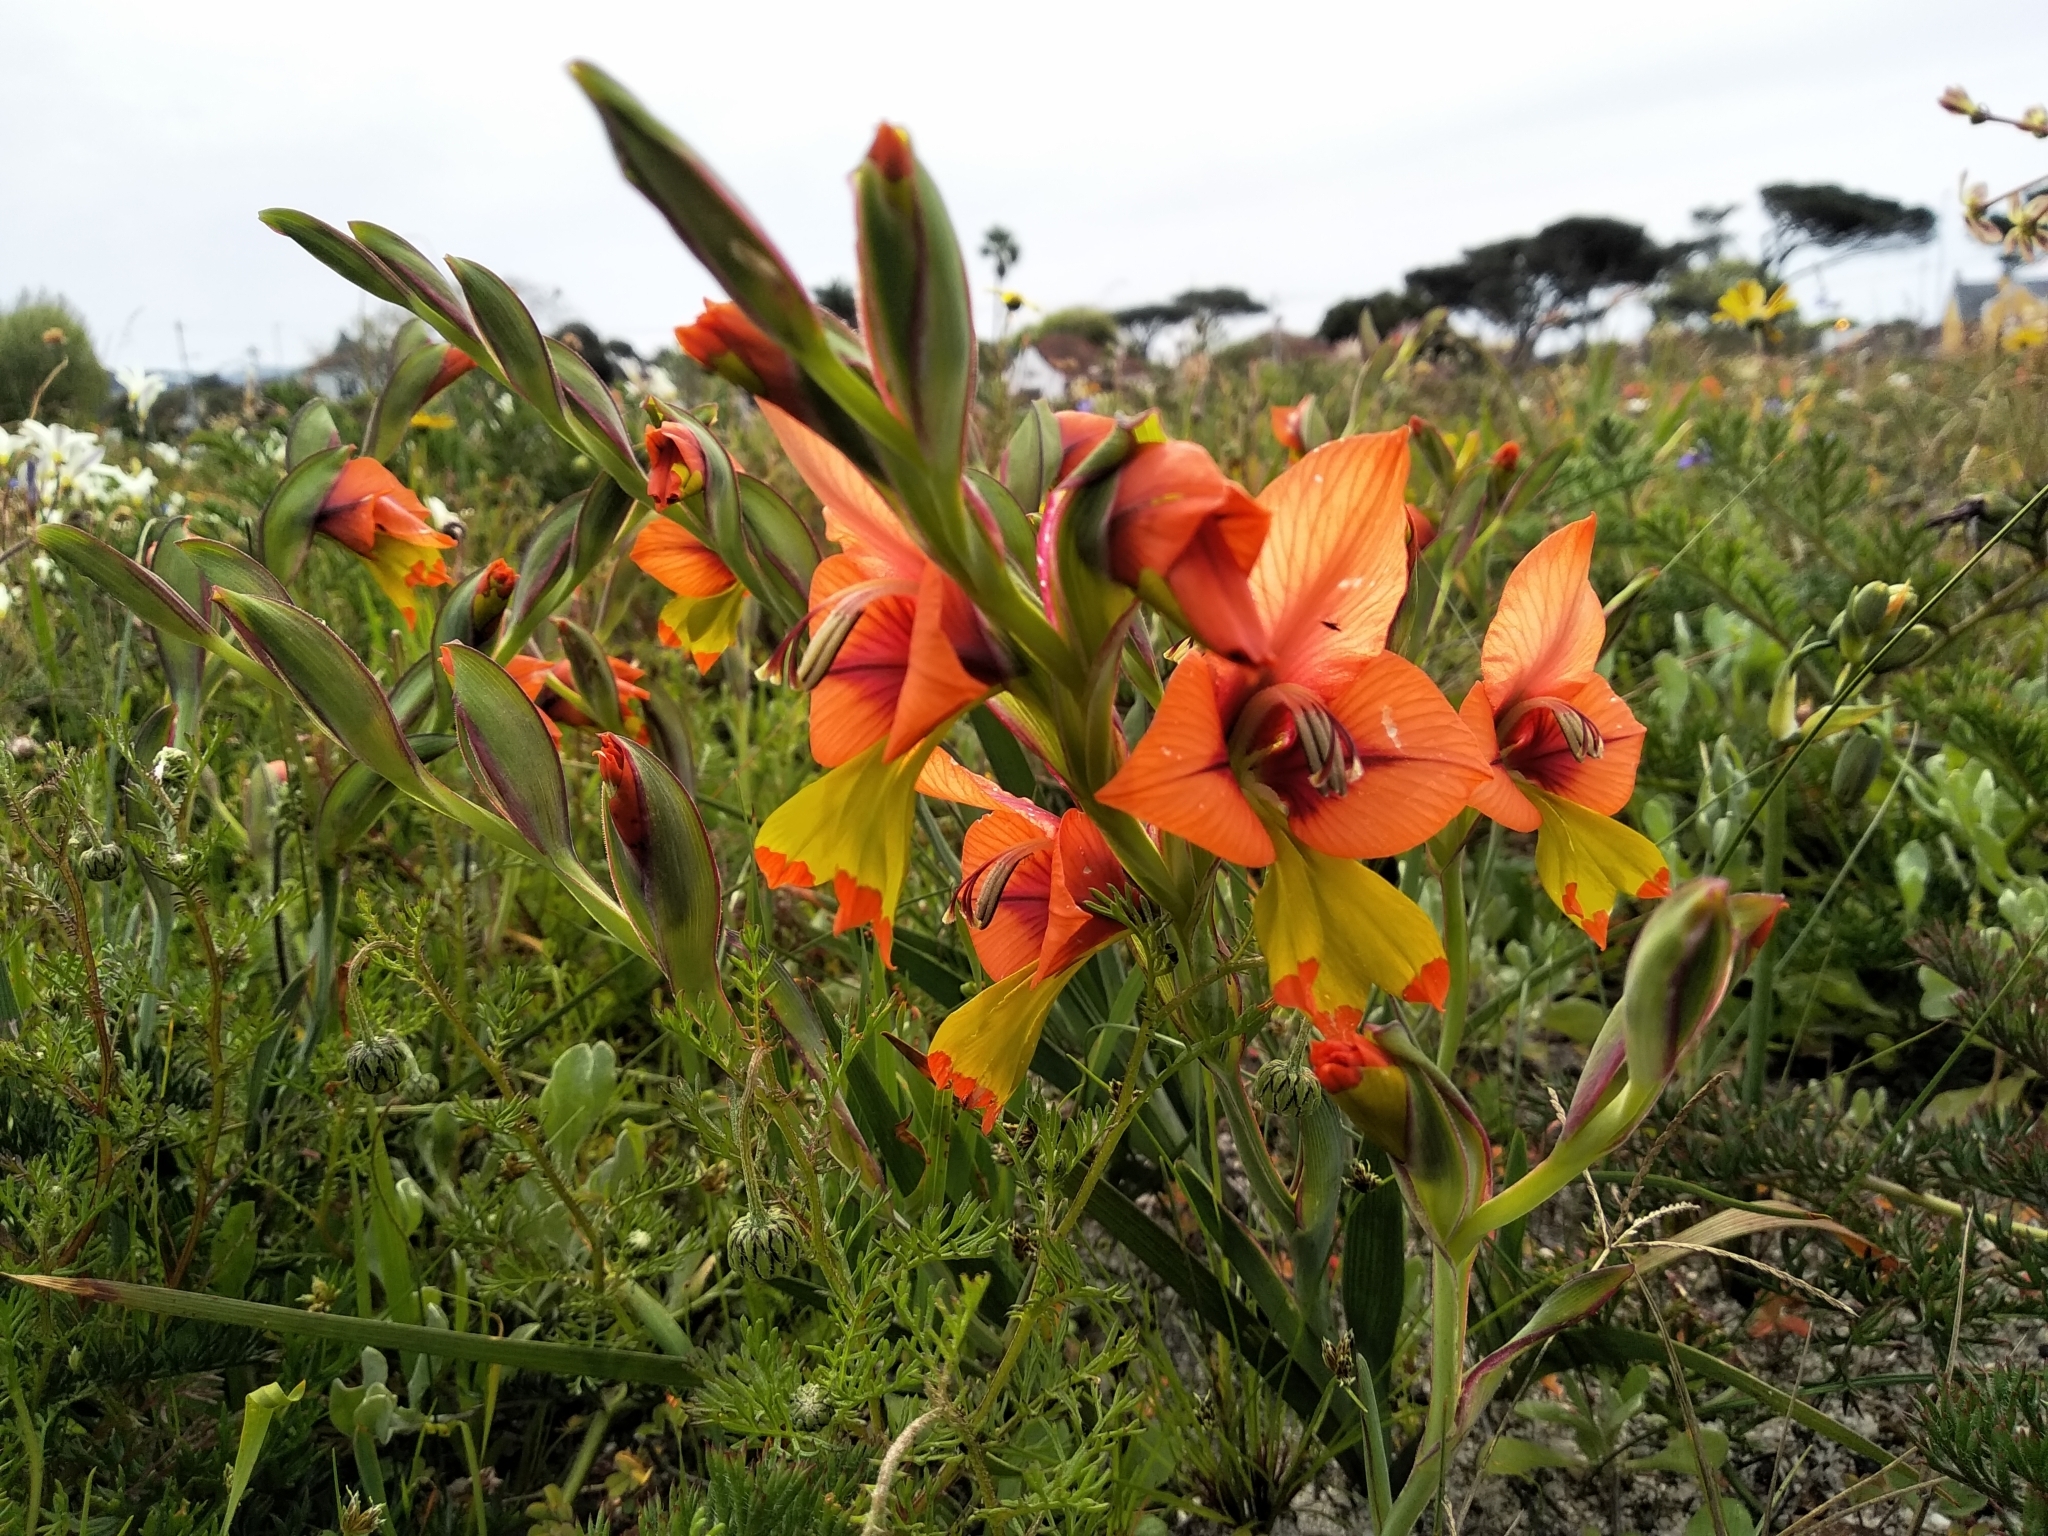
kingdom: Plantae
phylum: Tracheophyta
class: Liliopsida
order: Asparagales
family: Iridaceae
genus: Gladiolus
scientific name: Gladiolus alatus
